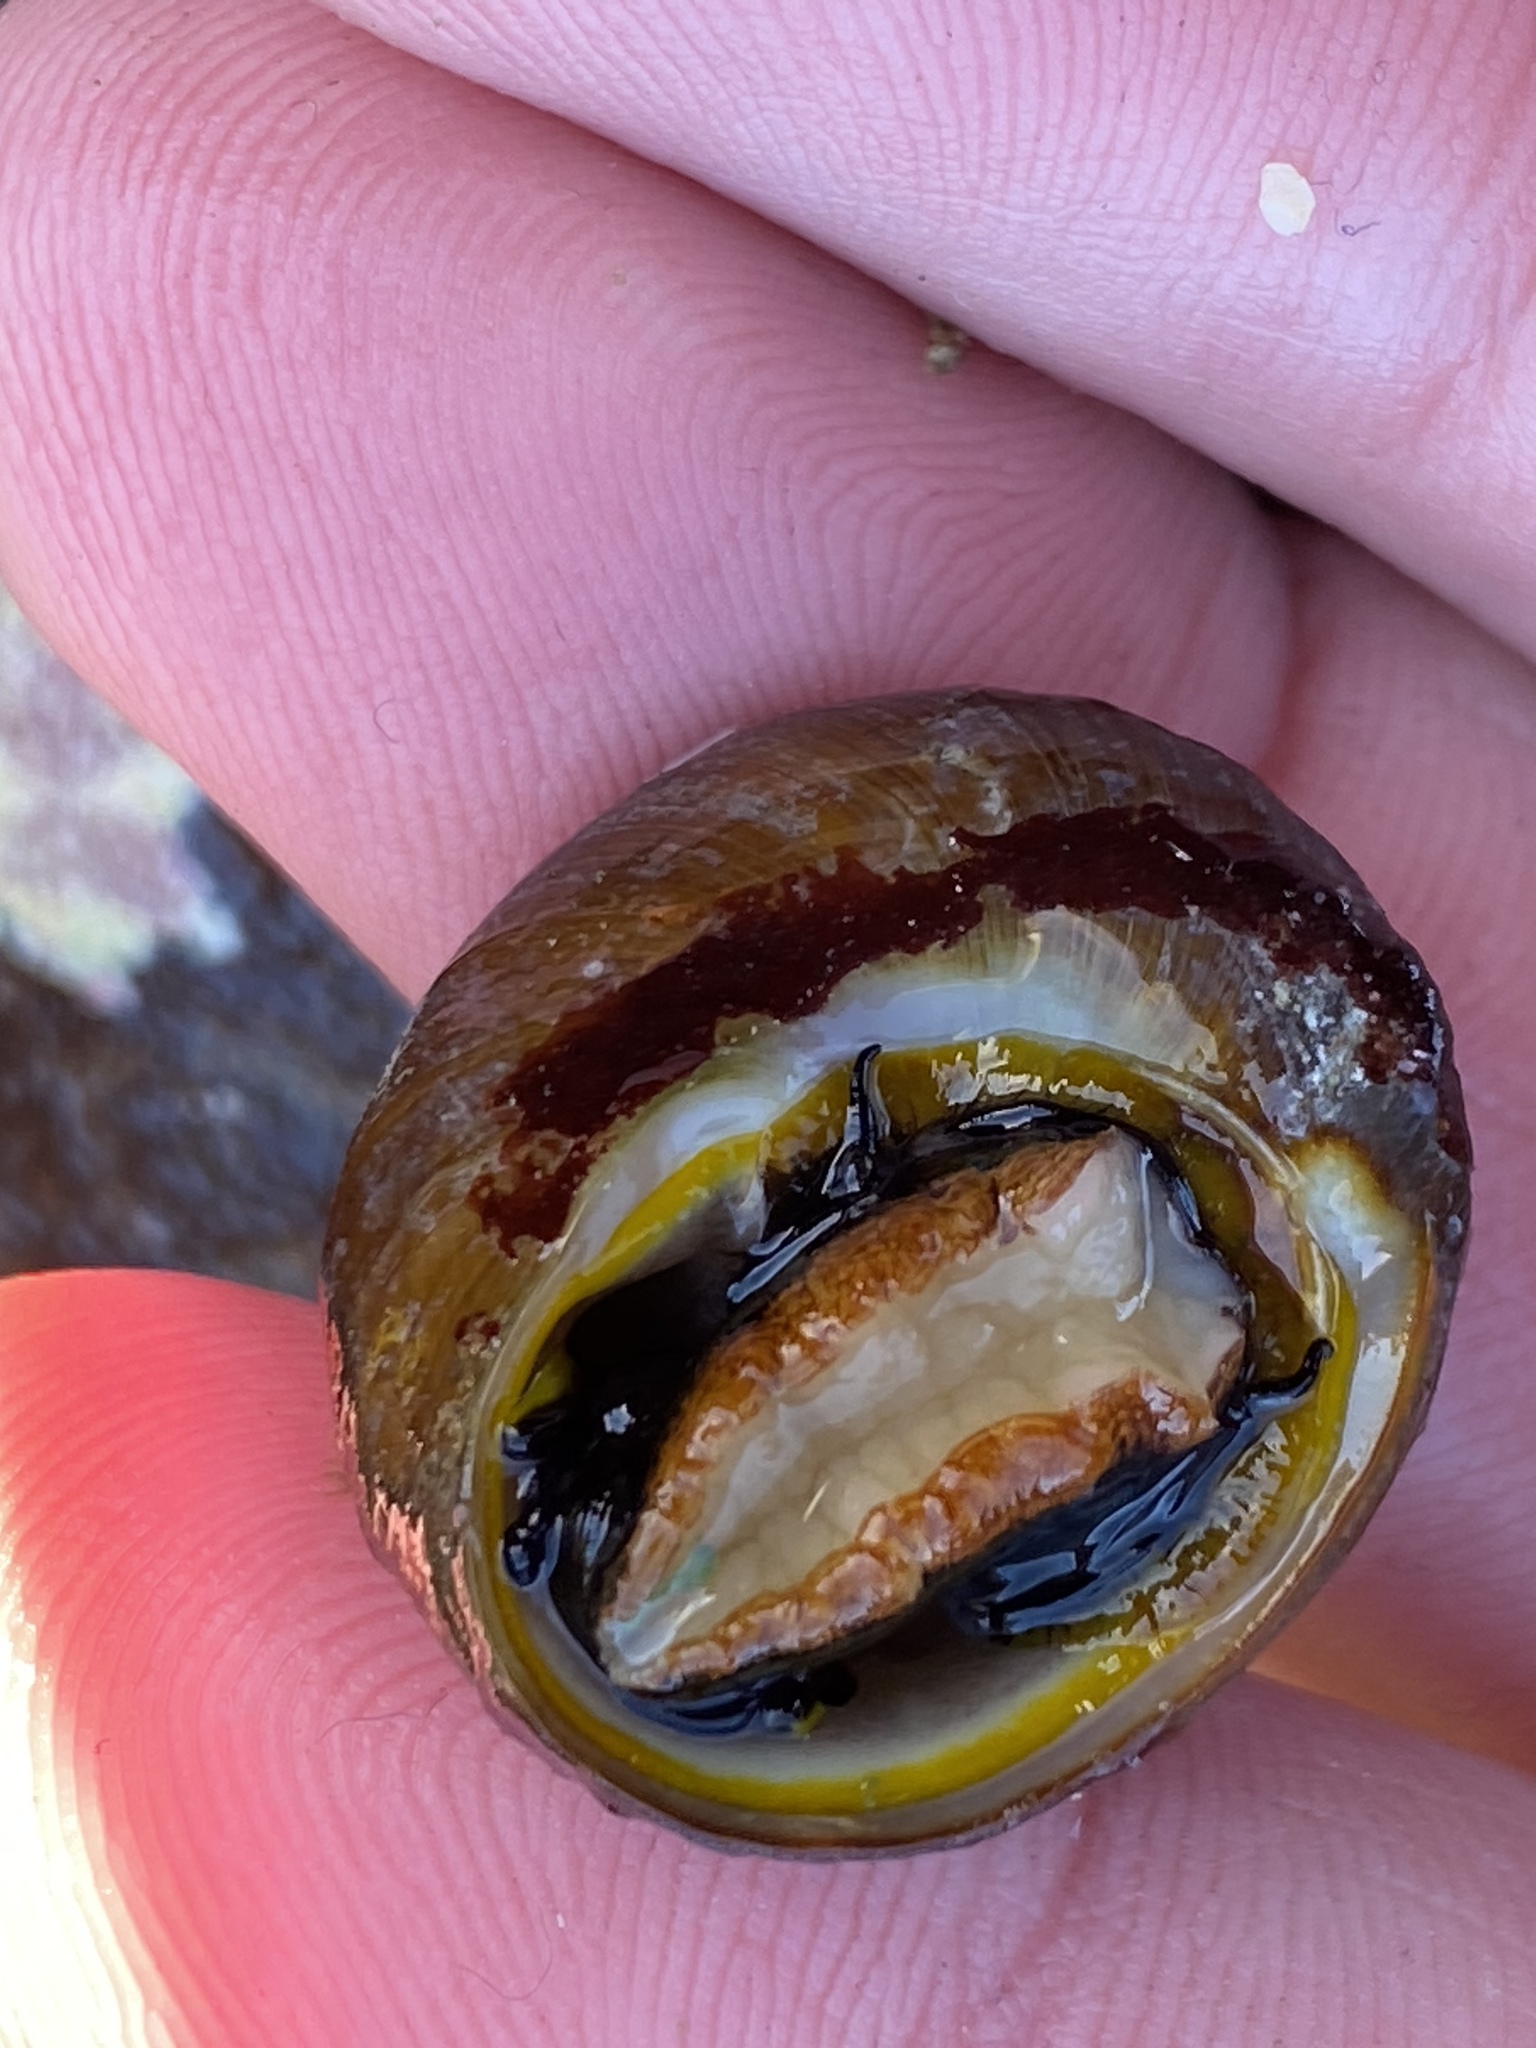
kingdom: Animalia
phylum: Mollusca
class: Gastropoda
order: Trochida
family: Tegulidae
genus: Tegula
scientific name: Tegula brunnea
